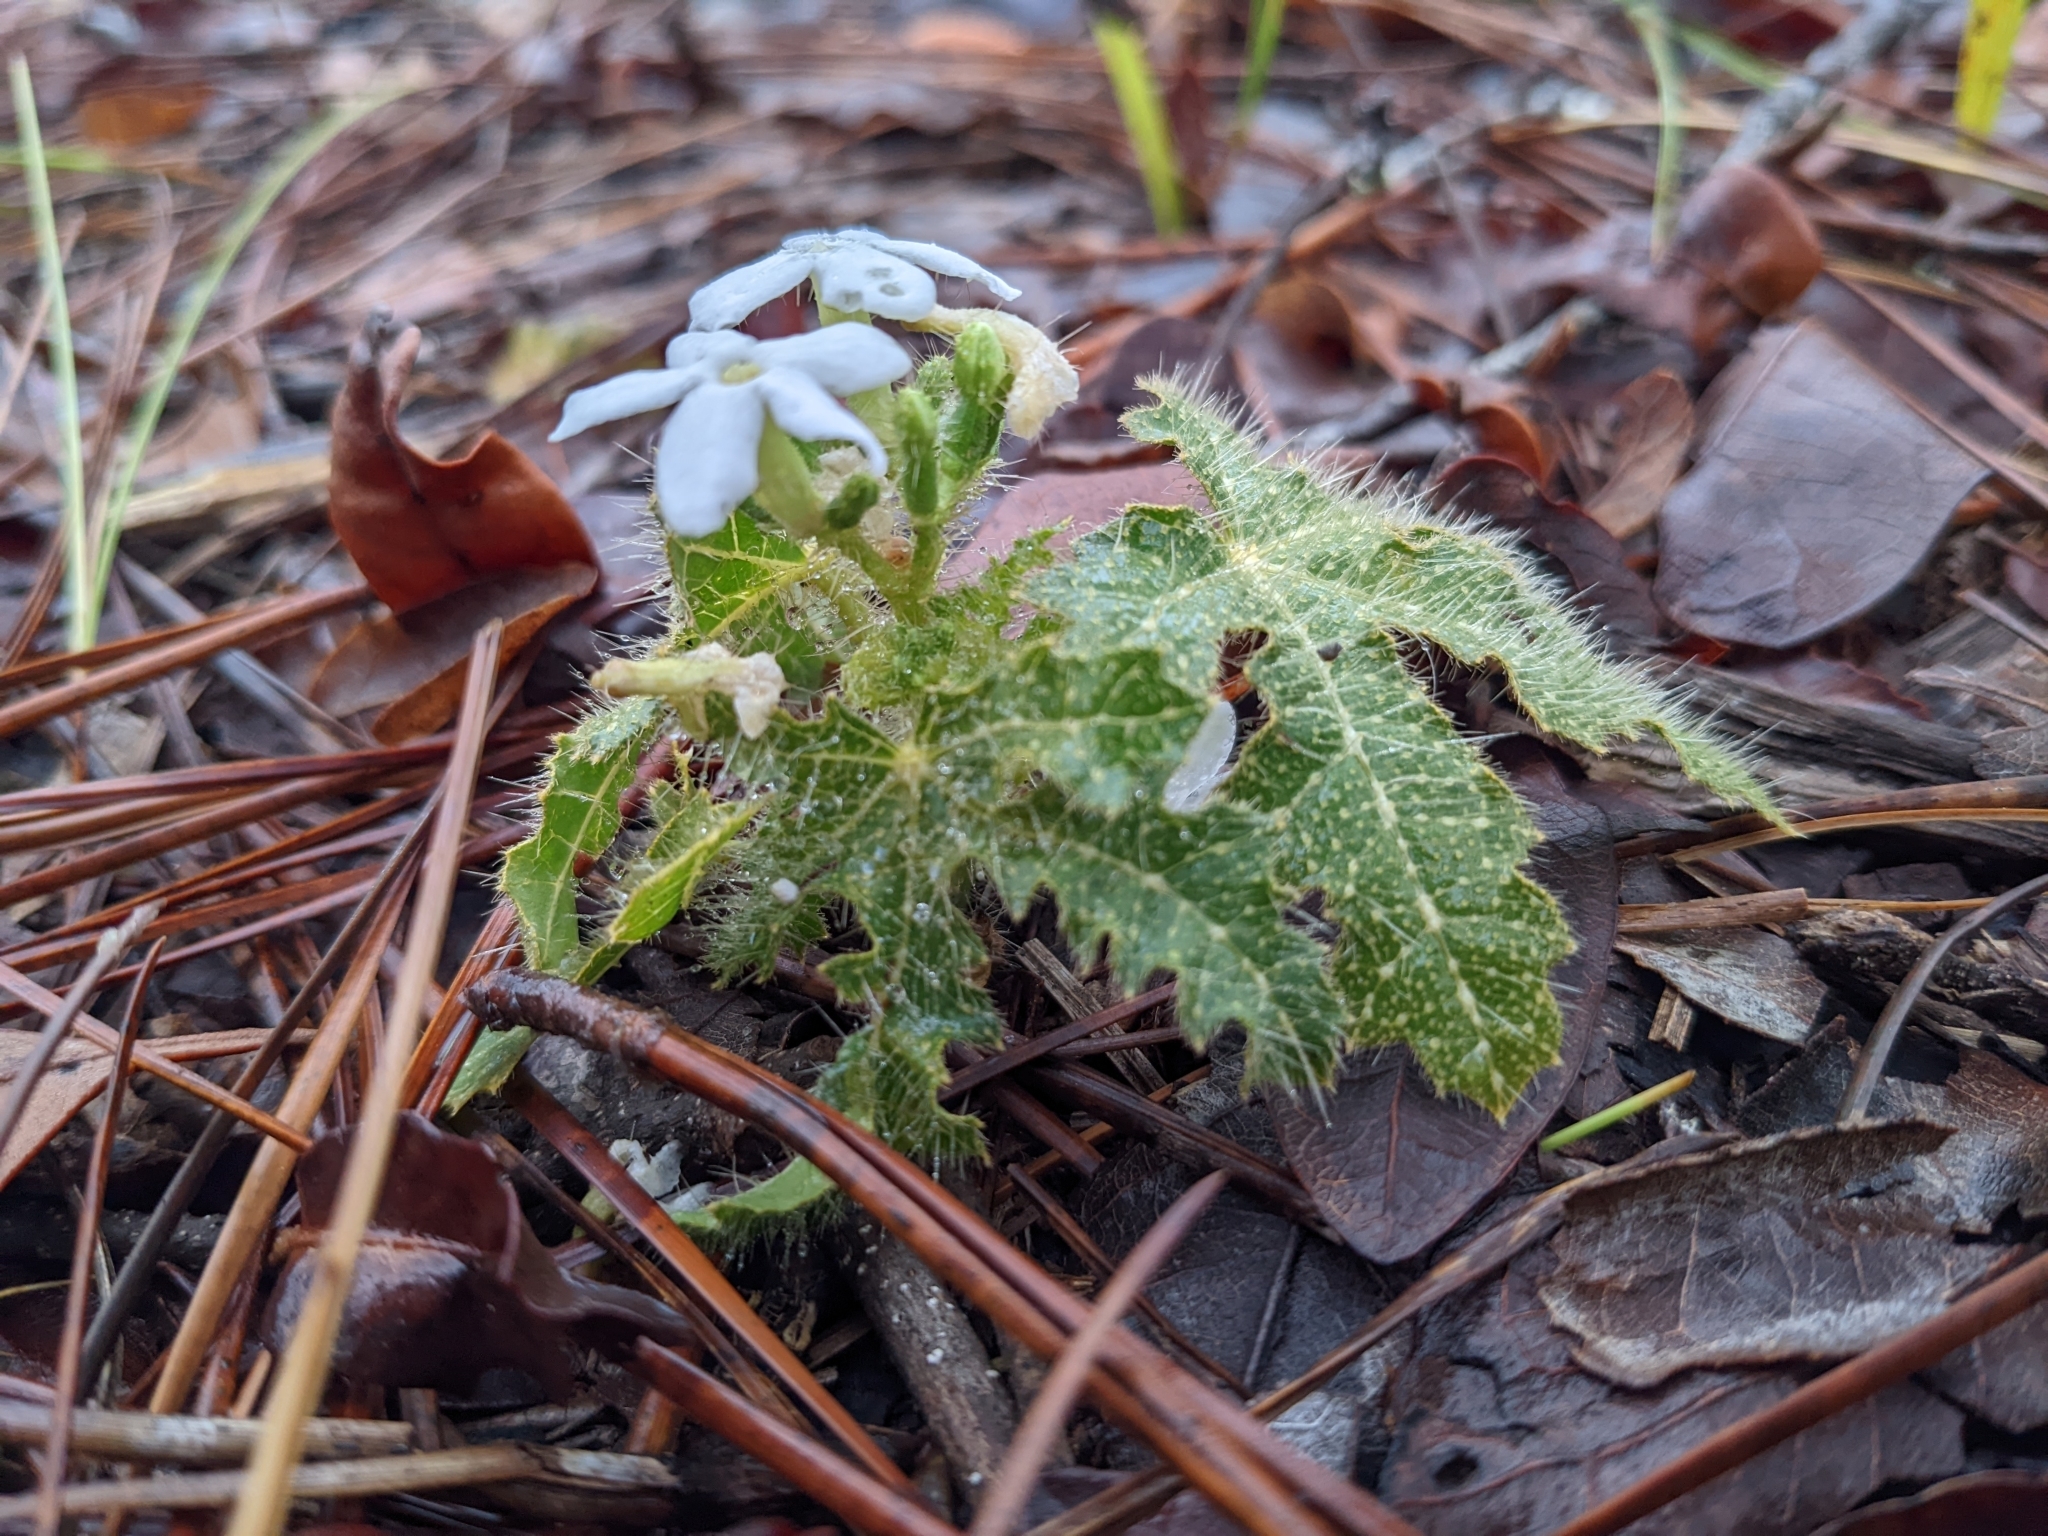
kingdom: Plantae
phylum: Tracheophyta
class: Magnoliopsida
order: Malpighiales
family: Euphorbiaceae
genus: Cnidoscolus
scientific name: Cnidoscolus stimulosus
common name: Bull-nettle
